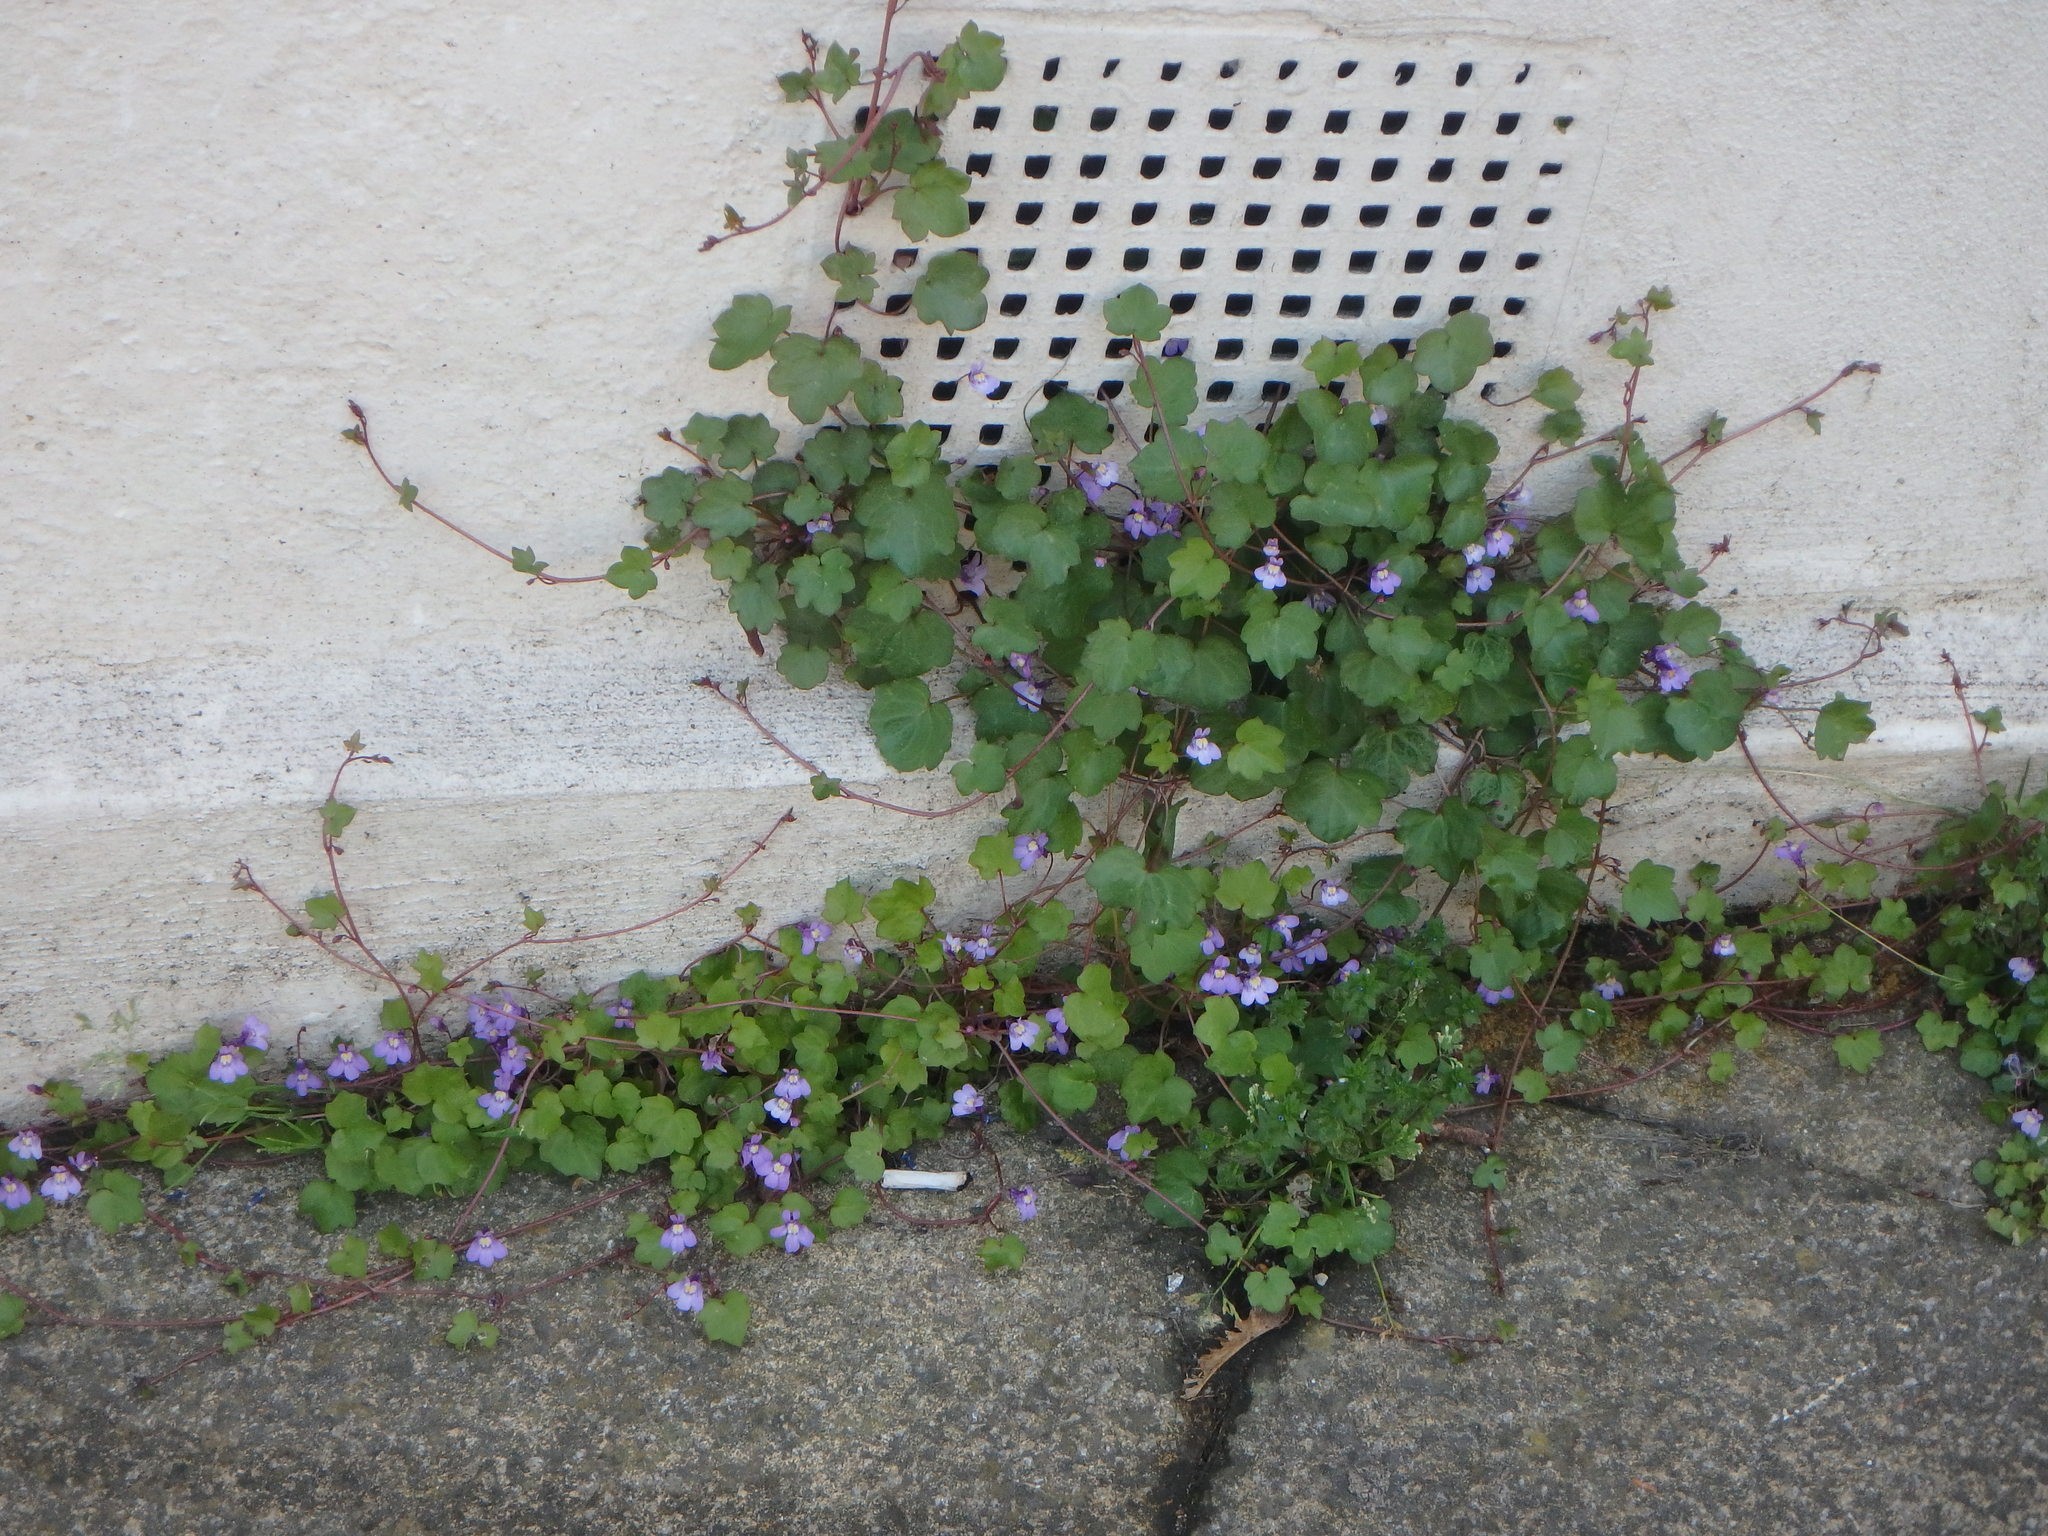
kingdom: Plantae
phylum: Tracheophyta
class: Magnoliopsida
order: Lamiales
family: Plantaginaceae
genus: Cymbalaria
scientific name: Cymbalaria muralis
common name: Ivy-leaved toadflax
